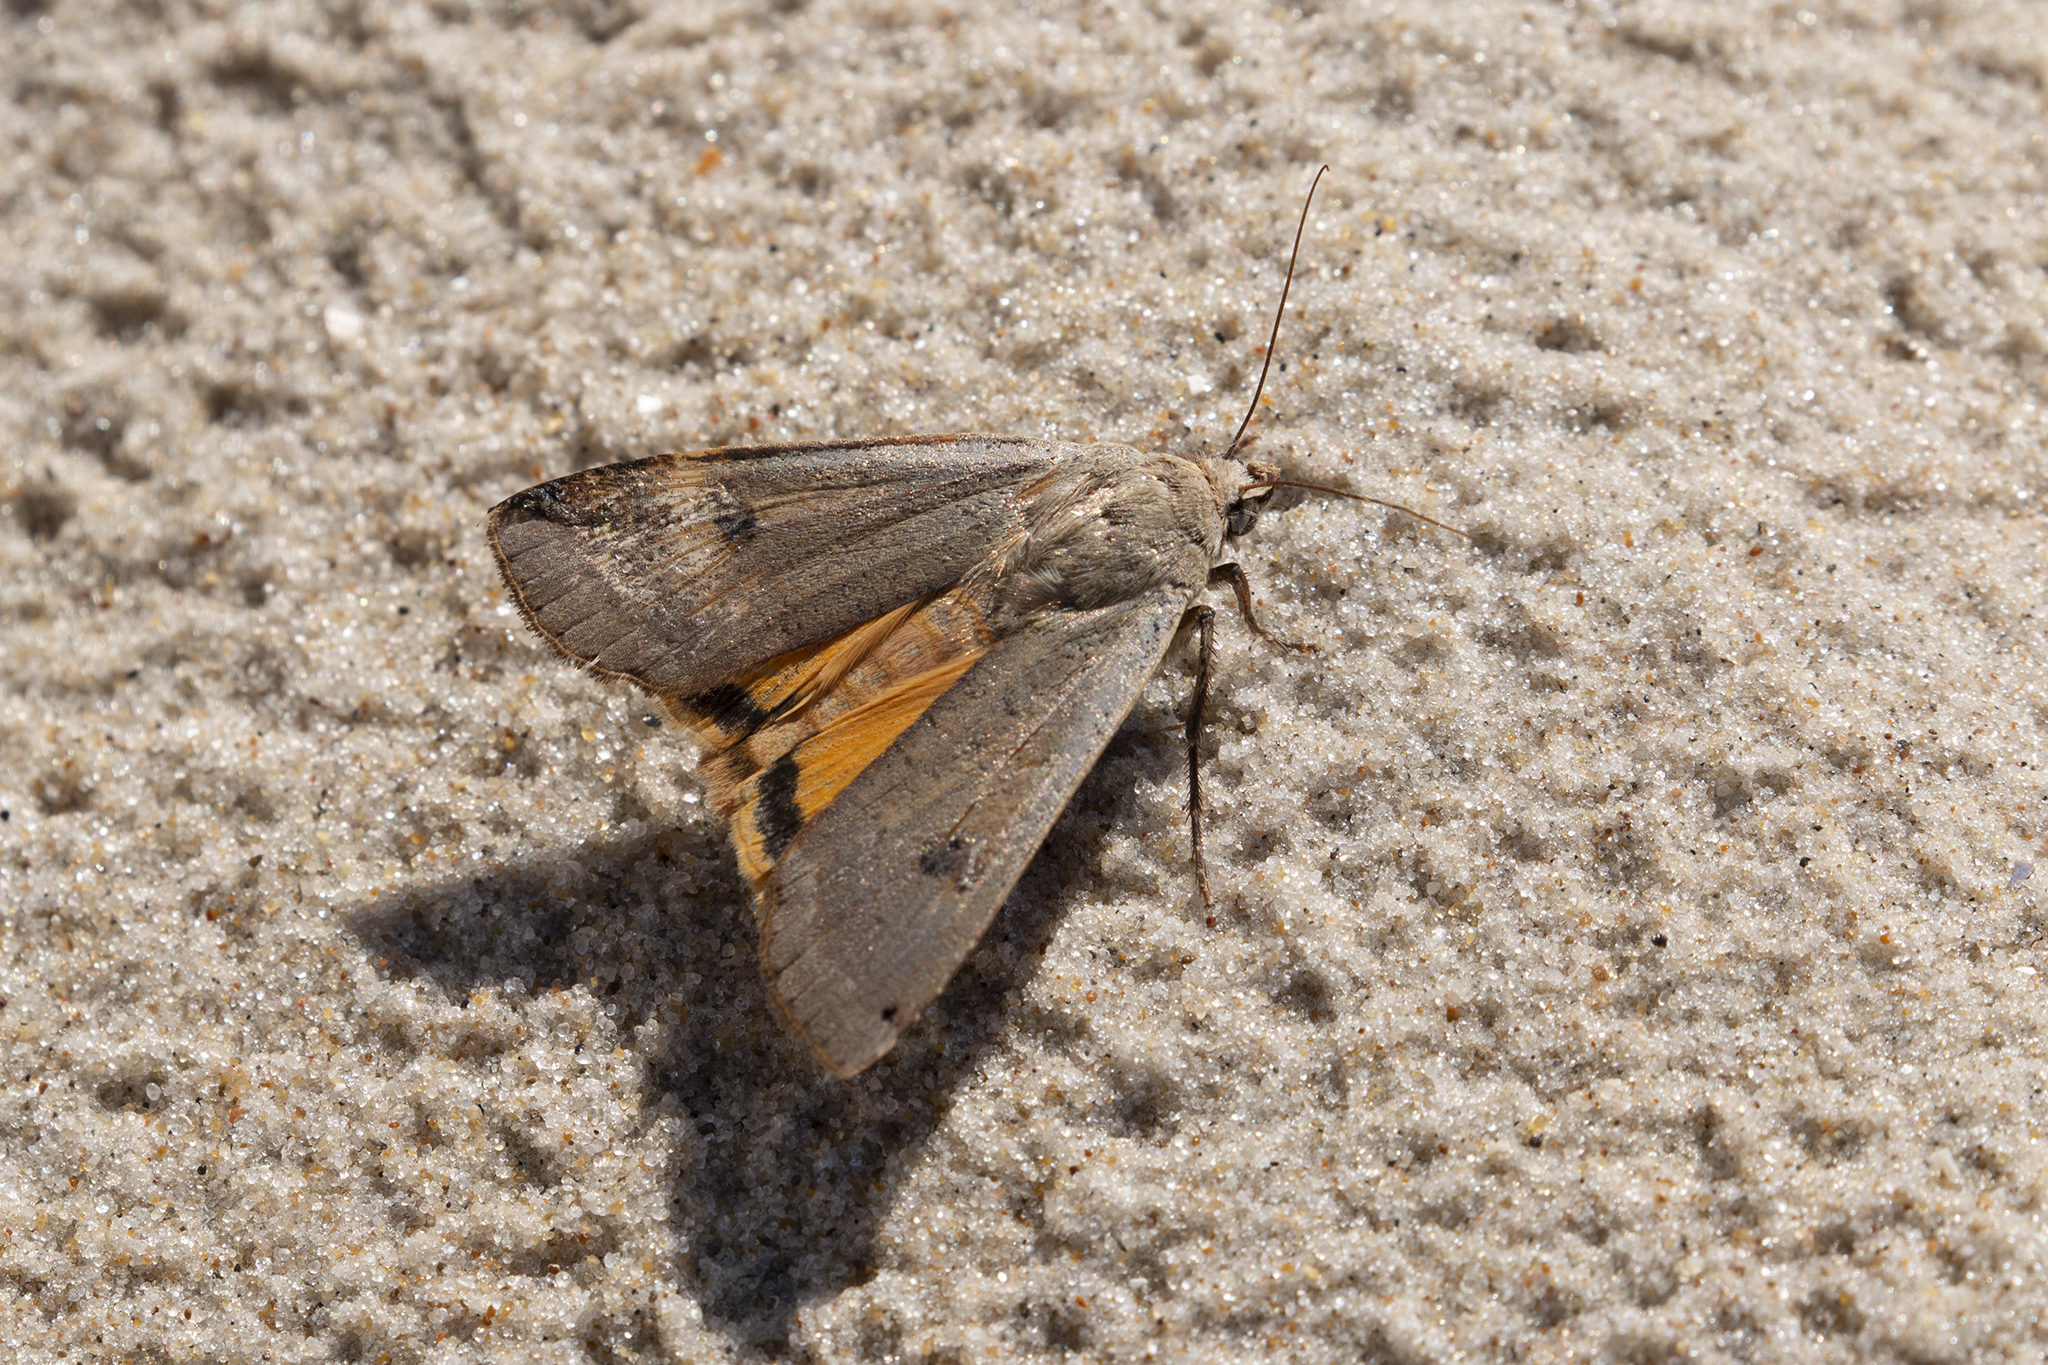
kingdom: Animalia
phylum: Arthropoda
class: Insecta
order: Lepidoptera
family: Noctuidae
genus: Noctua
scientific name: Noctua pronuba
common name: Large yellow underwing
